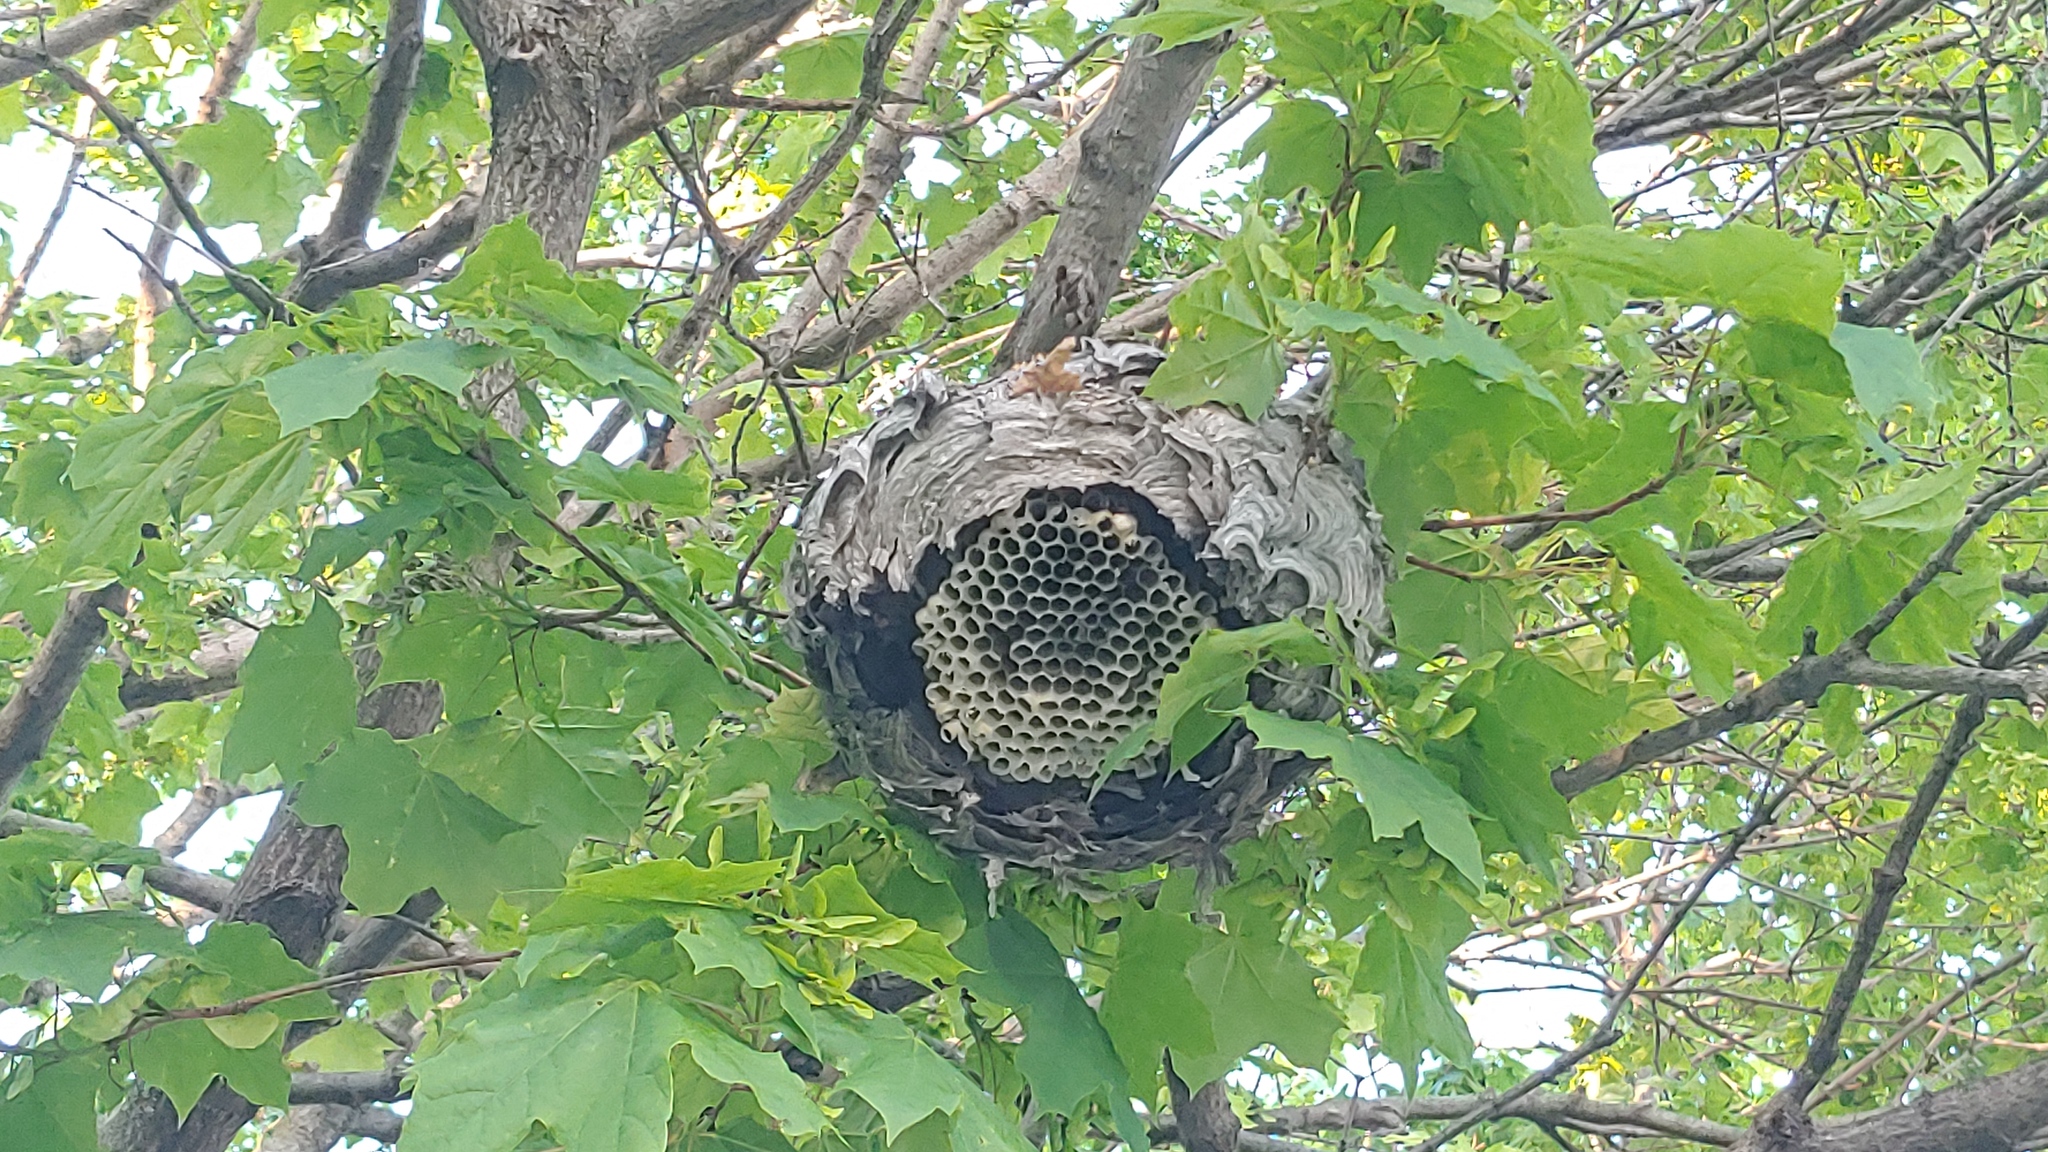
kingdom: Animalia
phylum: Arthropoda
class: Insecta
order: Hymenoptera
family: Vespidae
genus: Dolichovespula
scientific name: Dolichovespula maculata
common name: Bald-faced hornet
